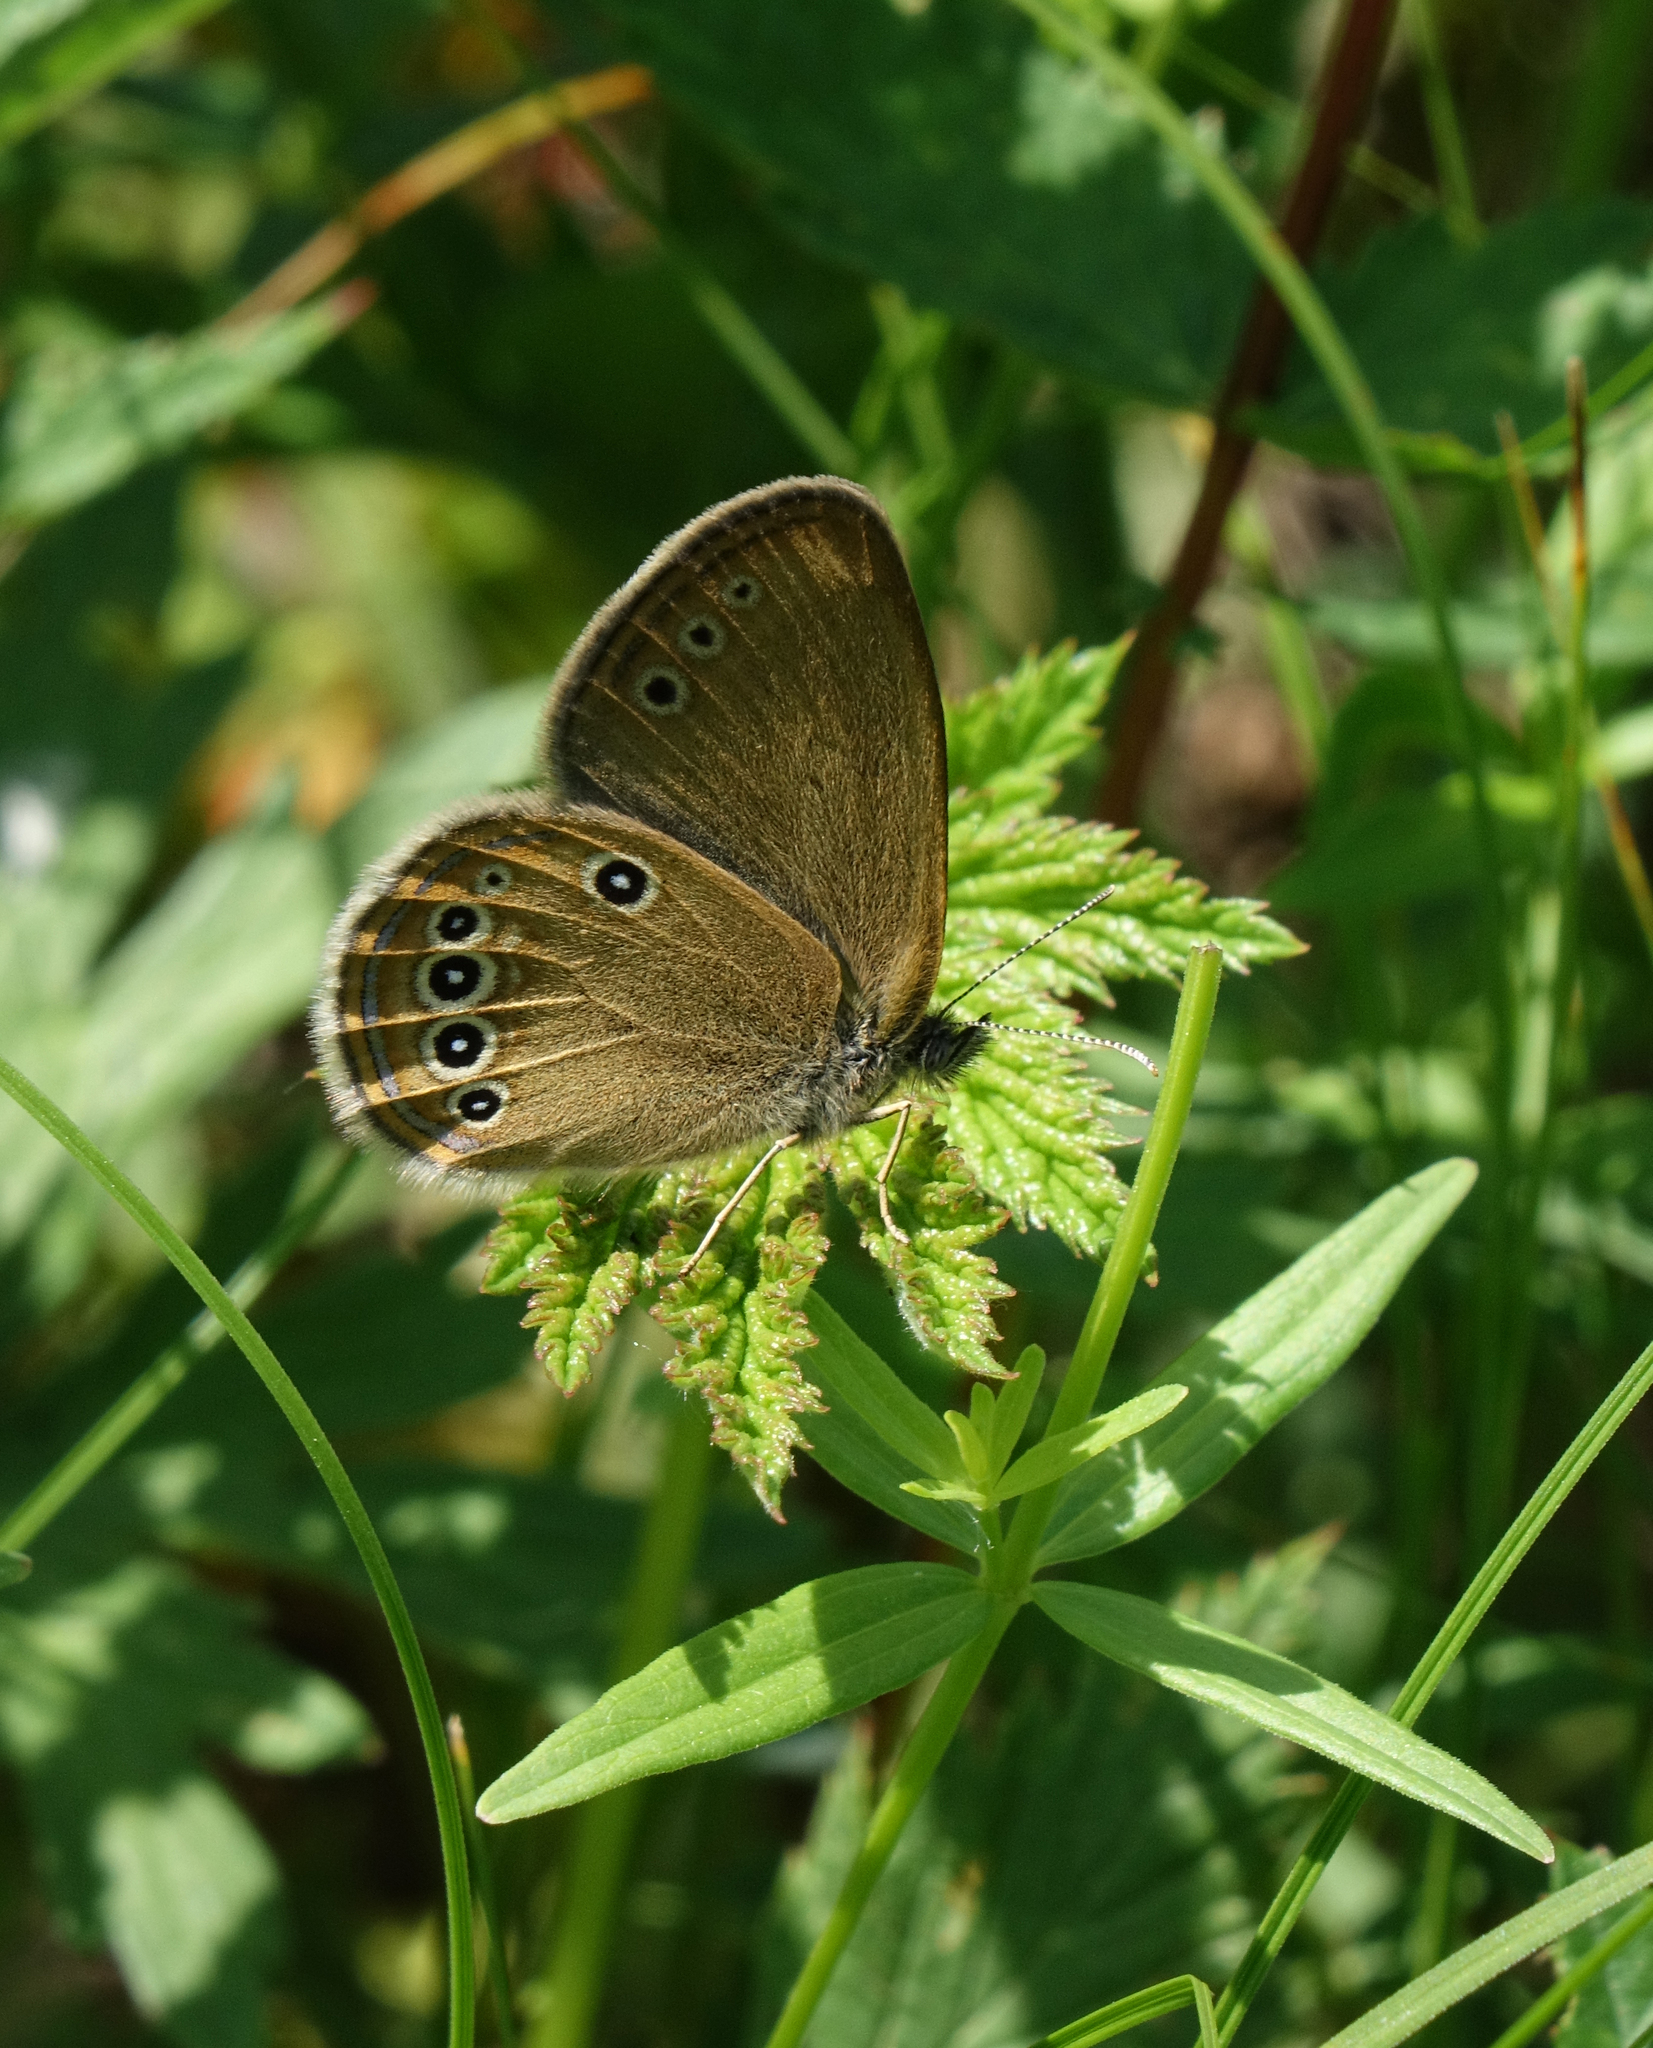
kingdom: Animalia
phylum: Arthropoda
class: Insecta
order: Lepidoptera
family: Nymphalidae
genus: Coenonympha
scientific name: Coenonympha oedippus
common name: False ringlet
